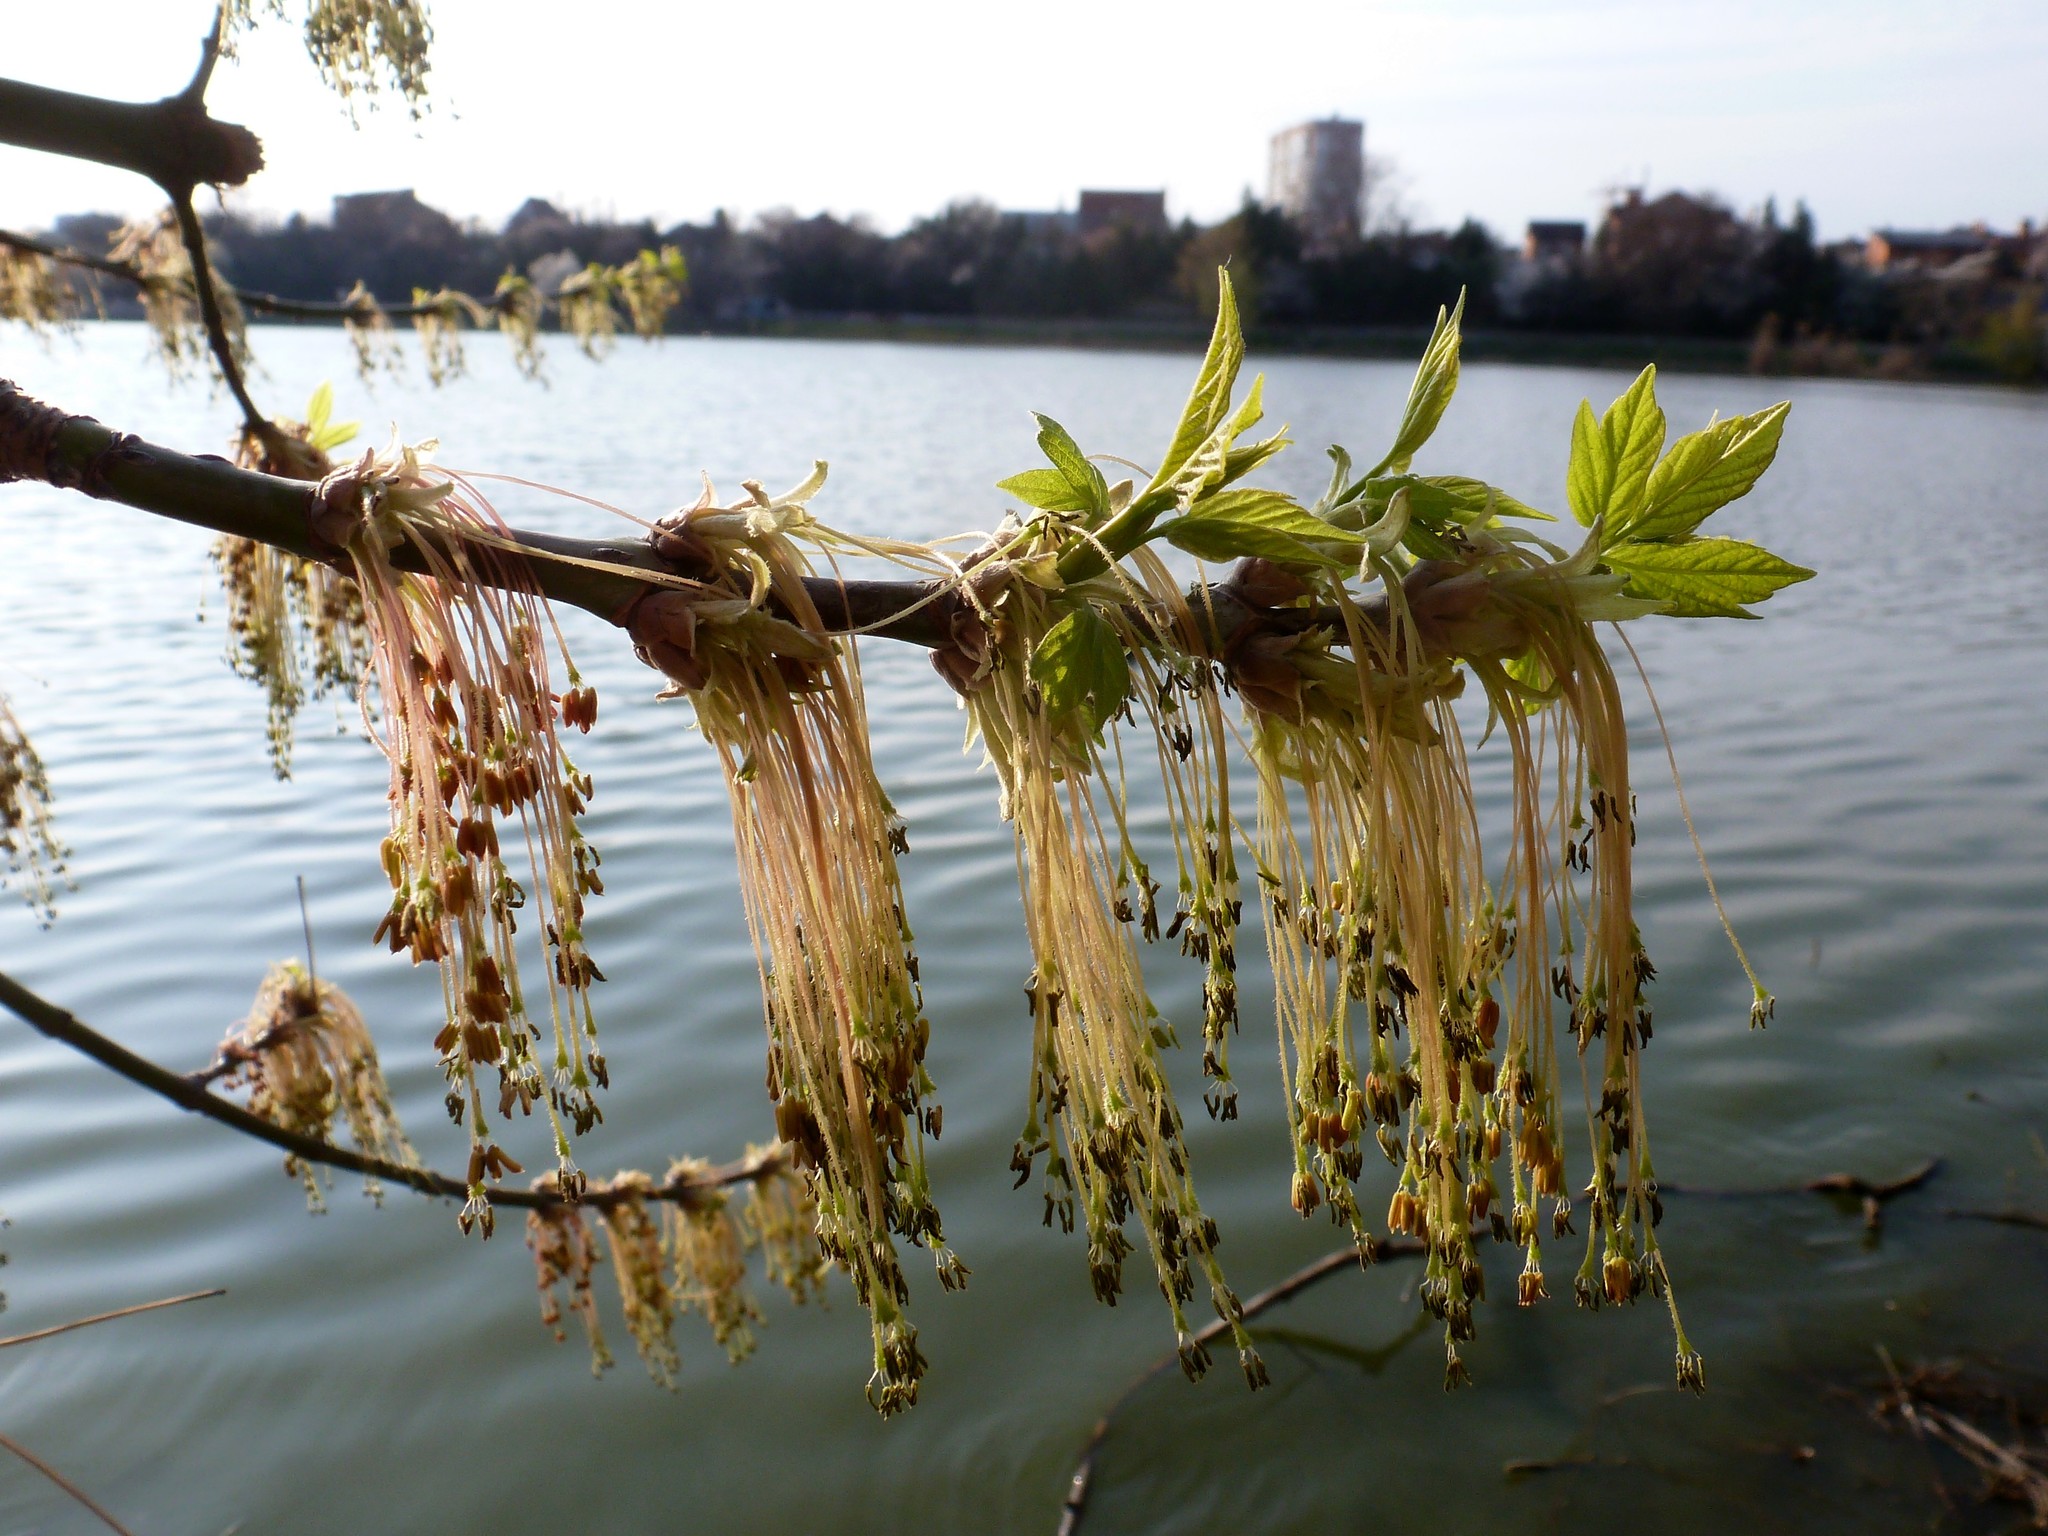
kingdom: Plantae
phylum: Tracheophyta
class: Magnoliopsida
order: Sapindales
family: Sapindaceae
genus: Acer
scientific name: Acer negundo
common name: Ashleaf maple
